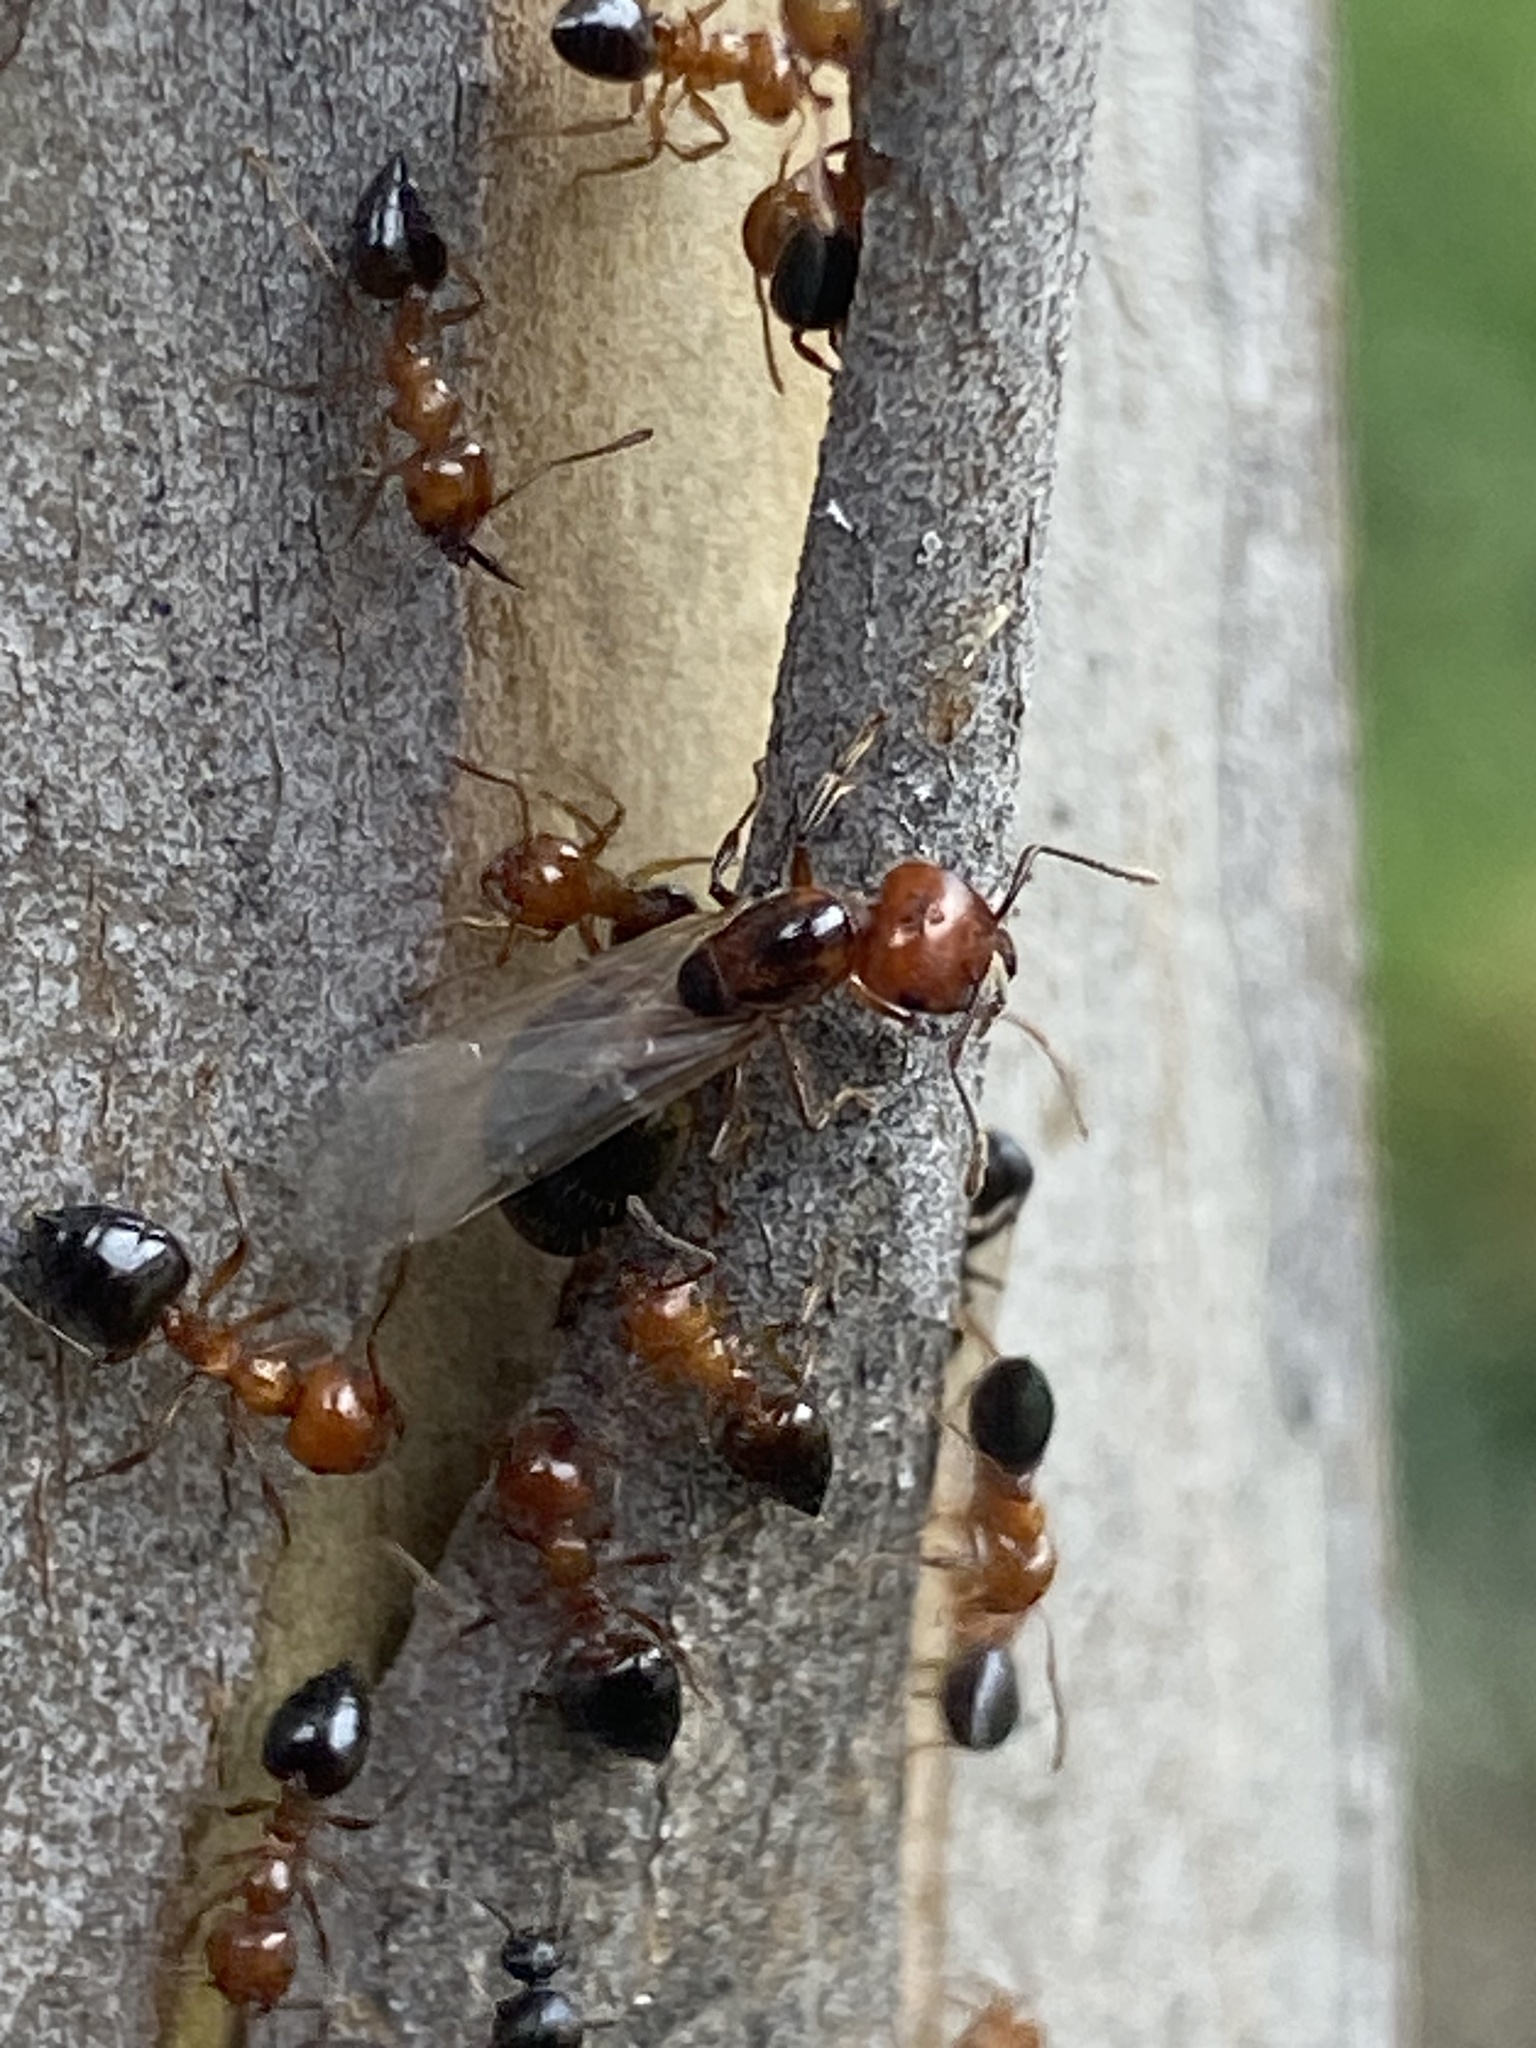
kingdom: Animalia
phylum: Arthropoda
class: Insecta
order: Hymenoptera
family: Formicidae
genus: Crematogaster
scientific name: Crematogaster laeviuscula
